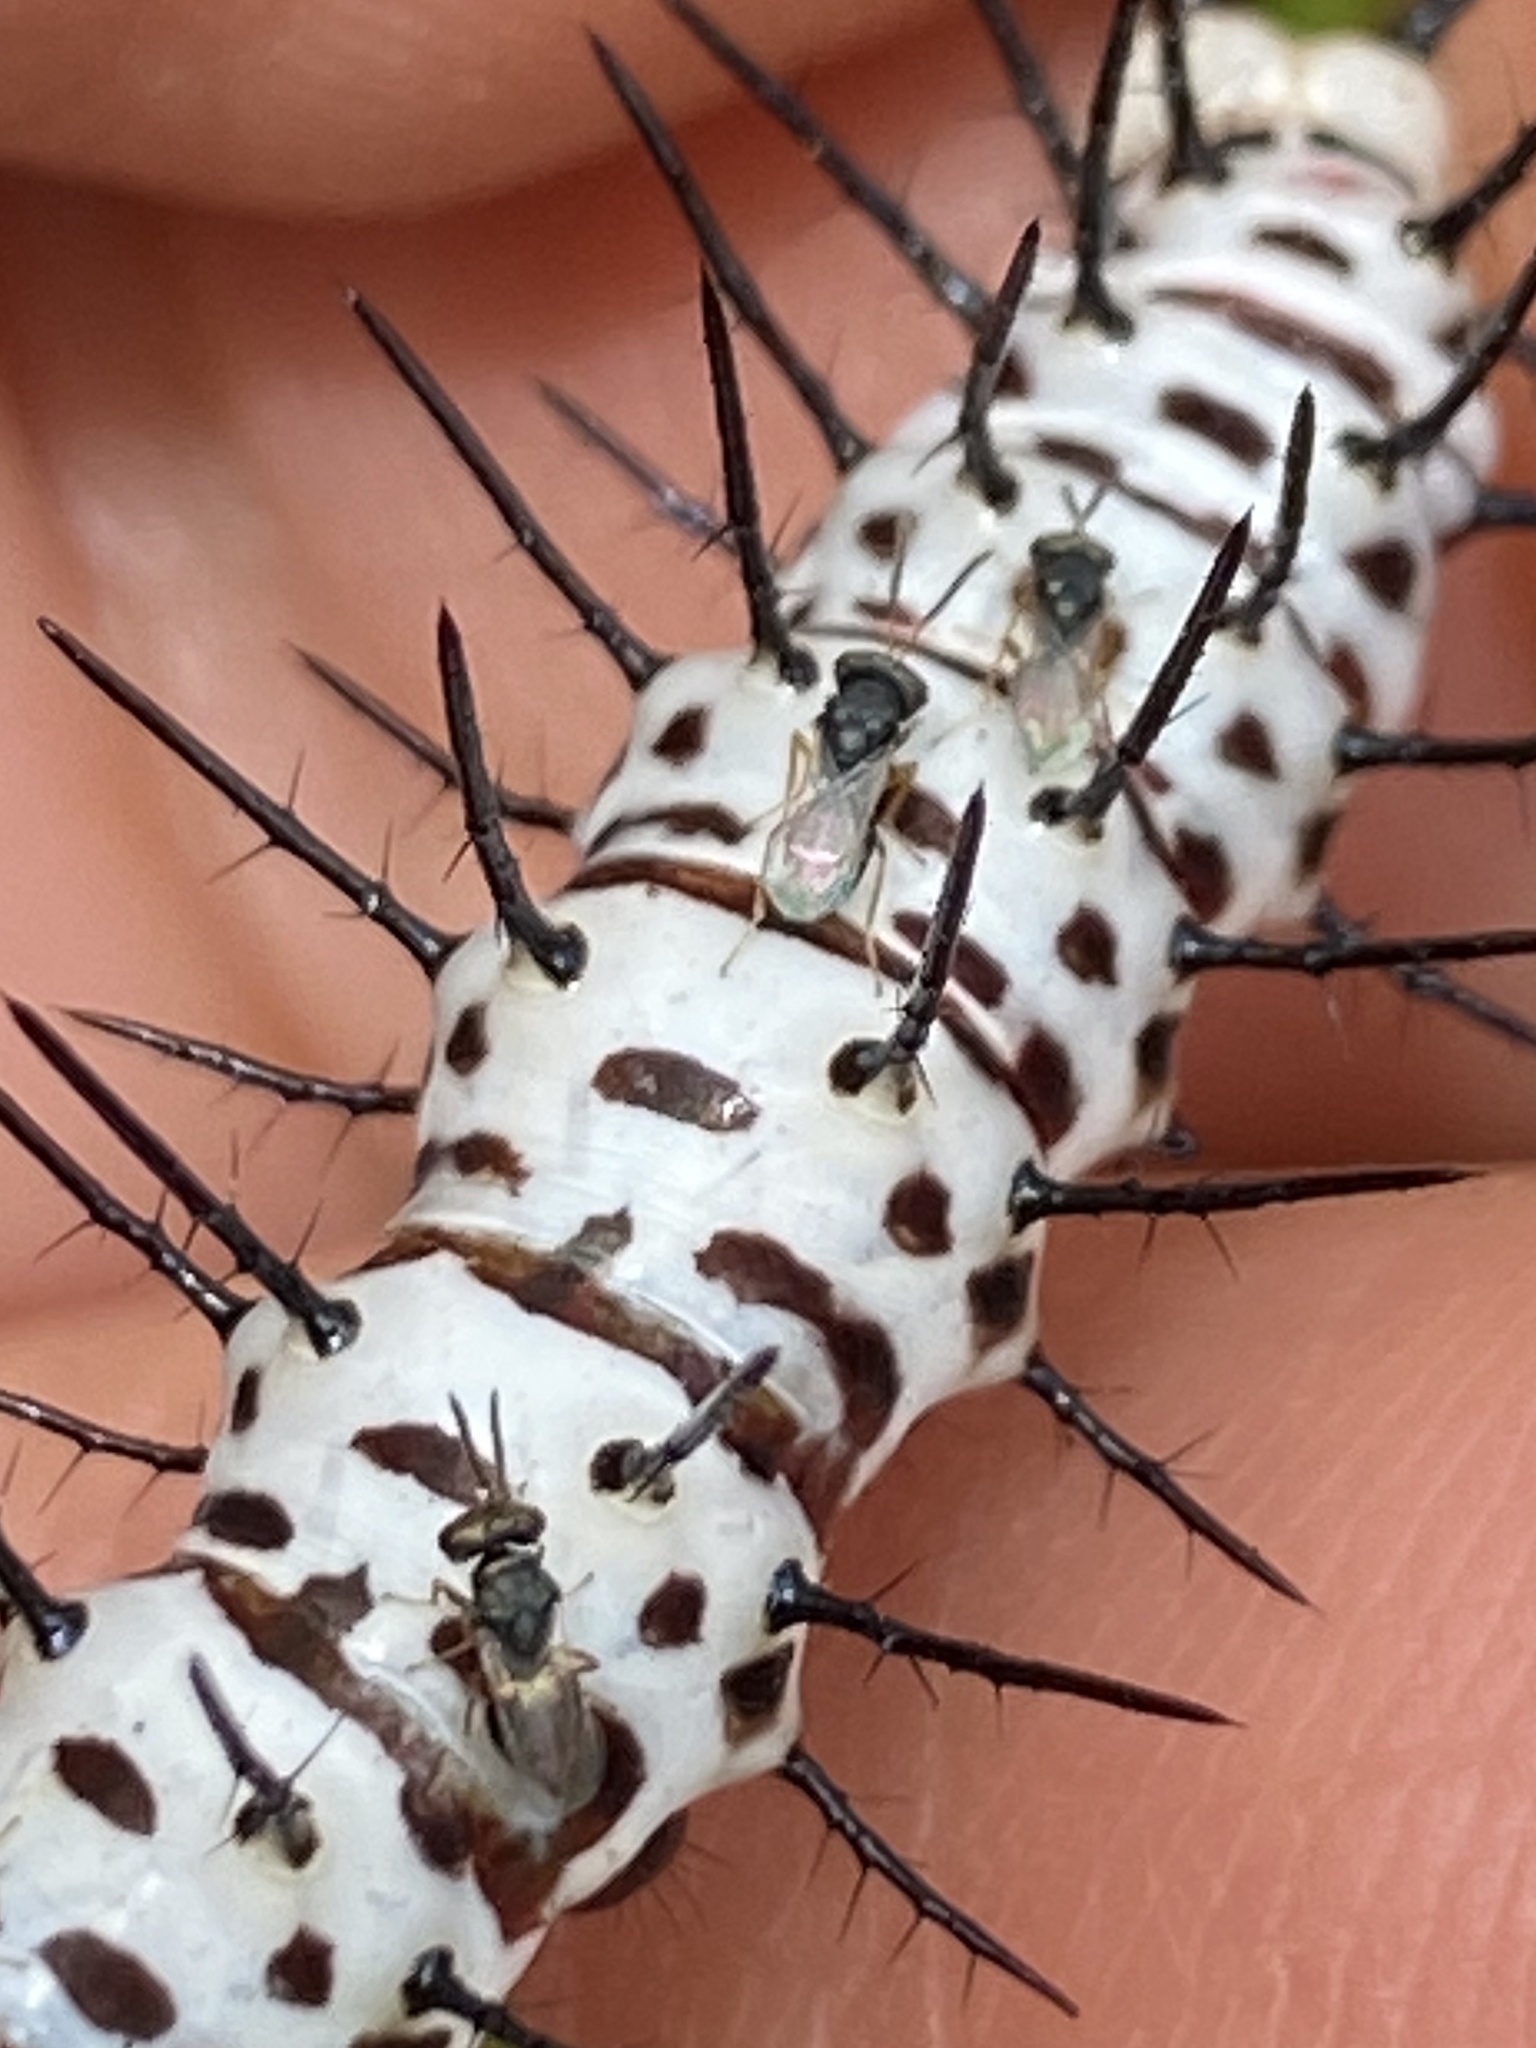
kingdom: Animalia
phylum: Arthropoda
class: Insecta
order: Lepidoptera
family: Nymphalidae
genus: Heliconius
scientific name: Heliconius charithonia
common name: Zebra long wing
